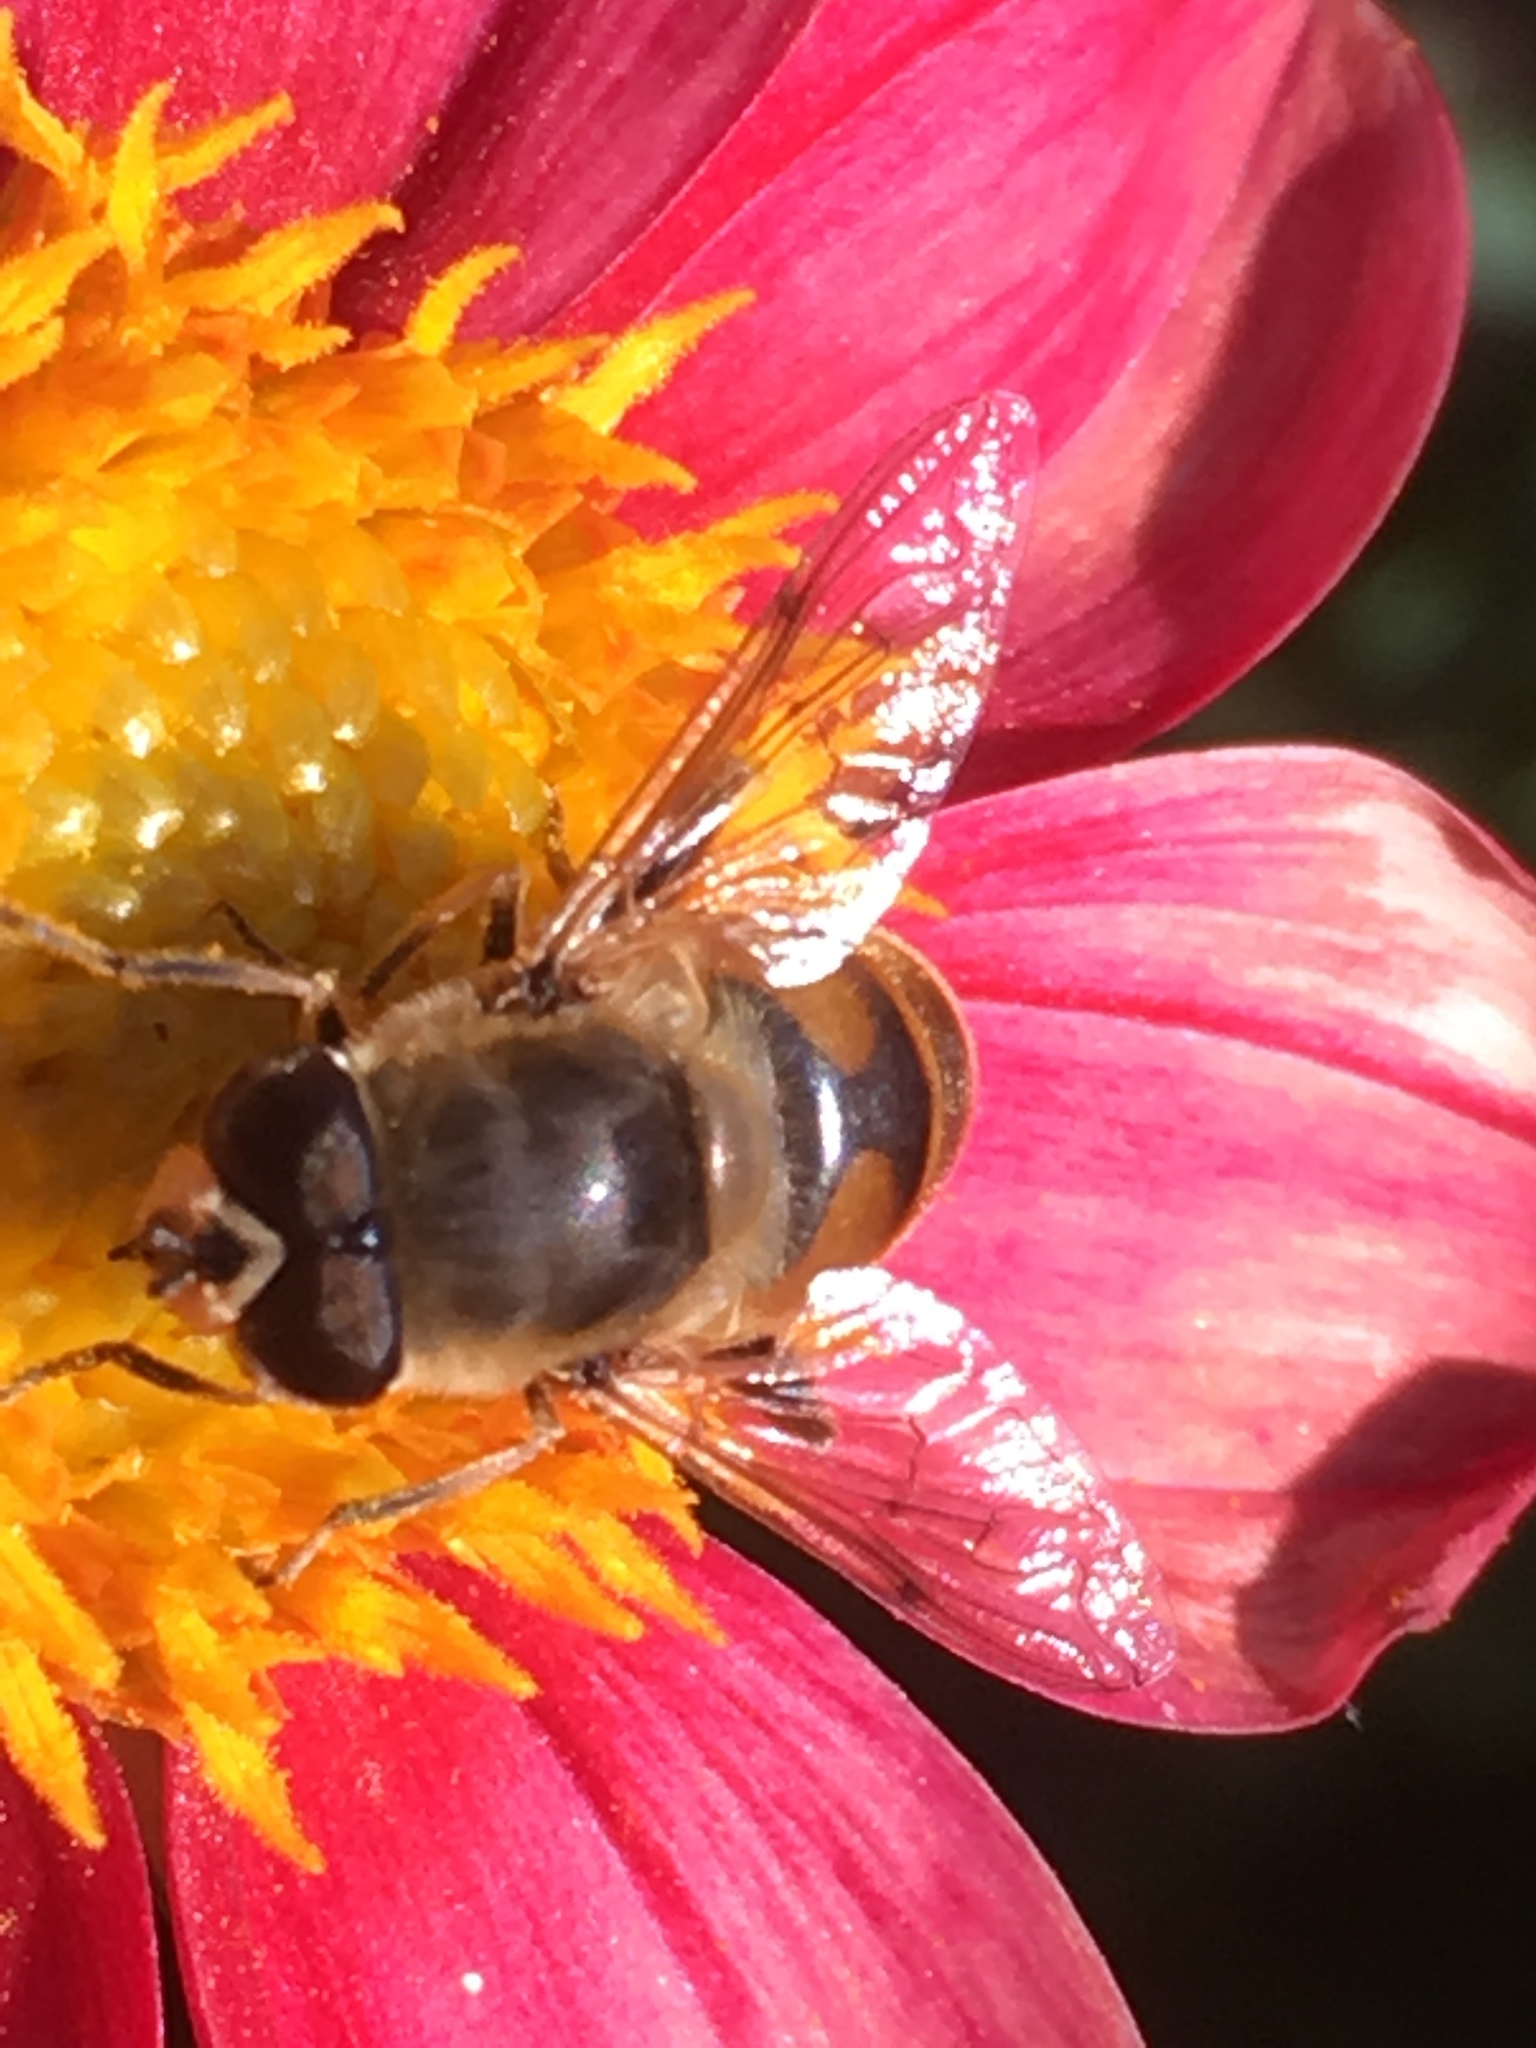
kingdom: Animalia
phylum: Arthropoda
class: Insecta
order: Diptera
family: Syrphidae
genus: Eristalis
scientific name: Eristalis tenax
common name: Drone fly
